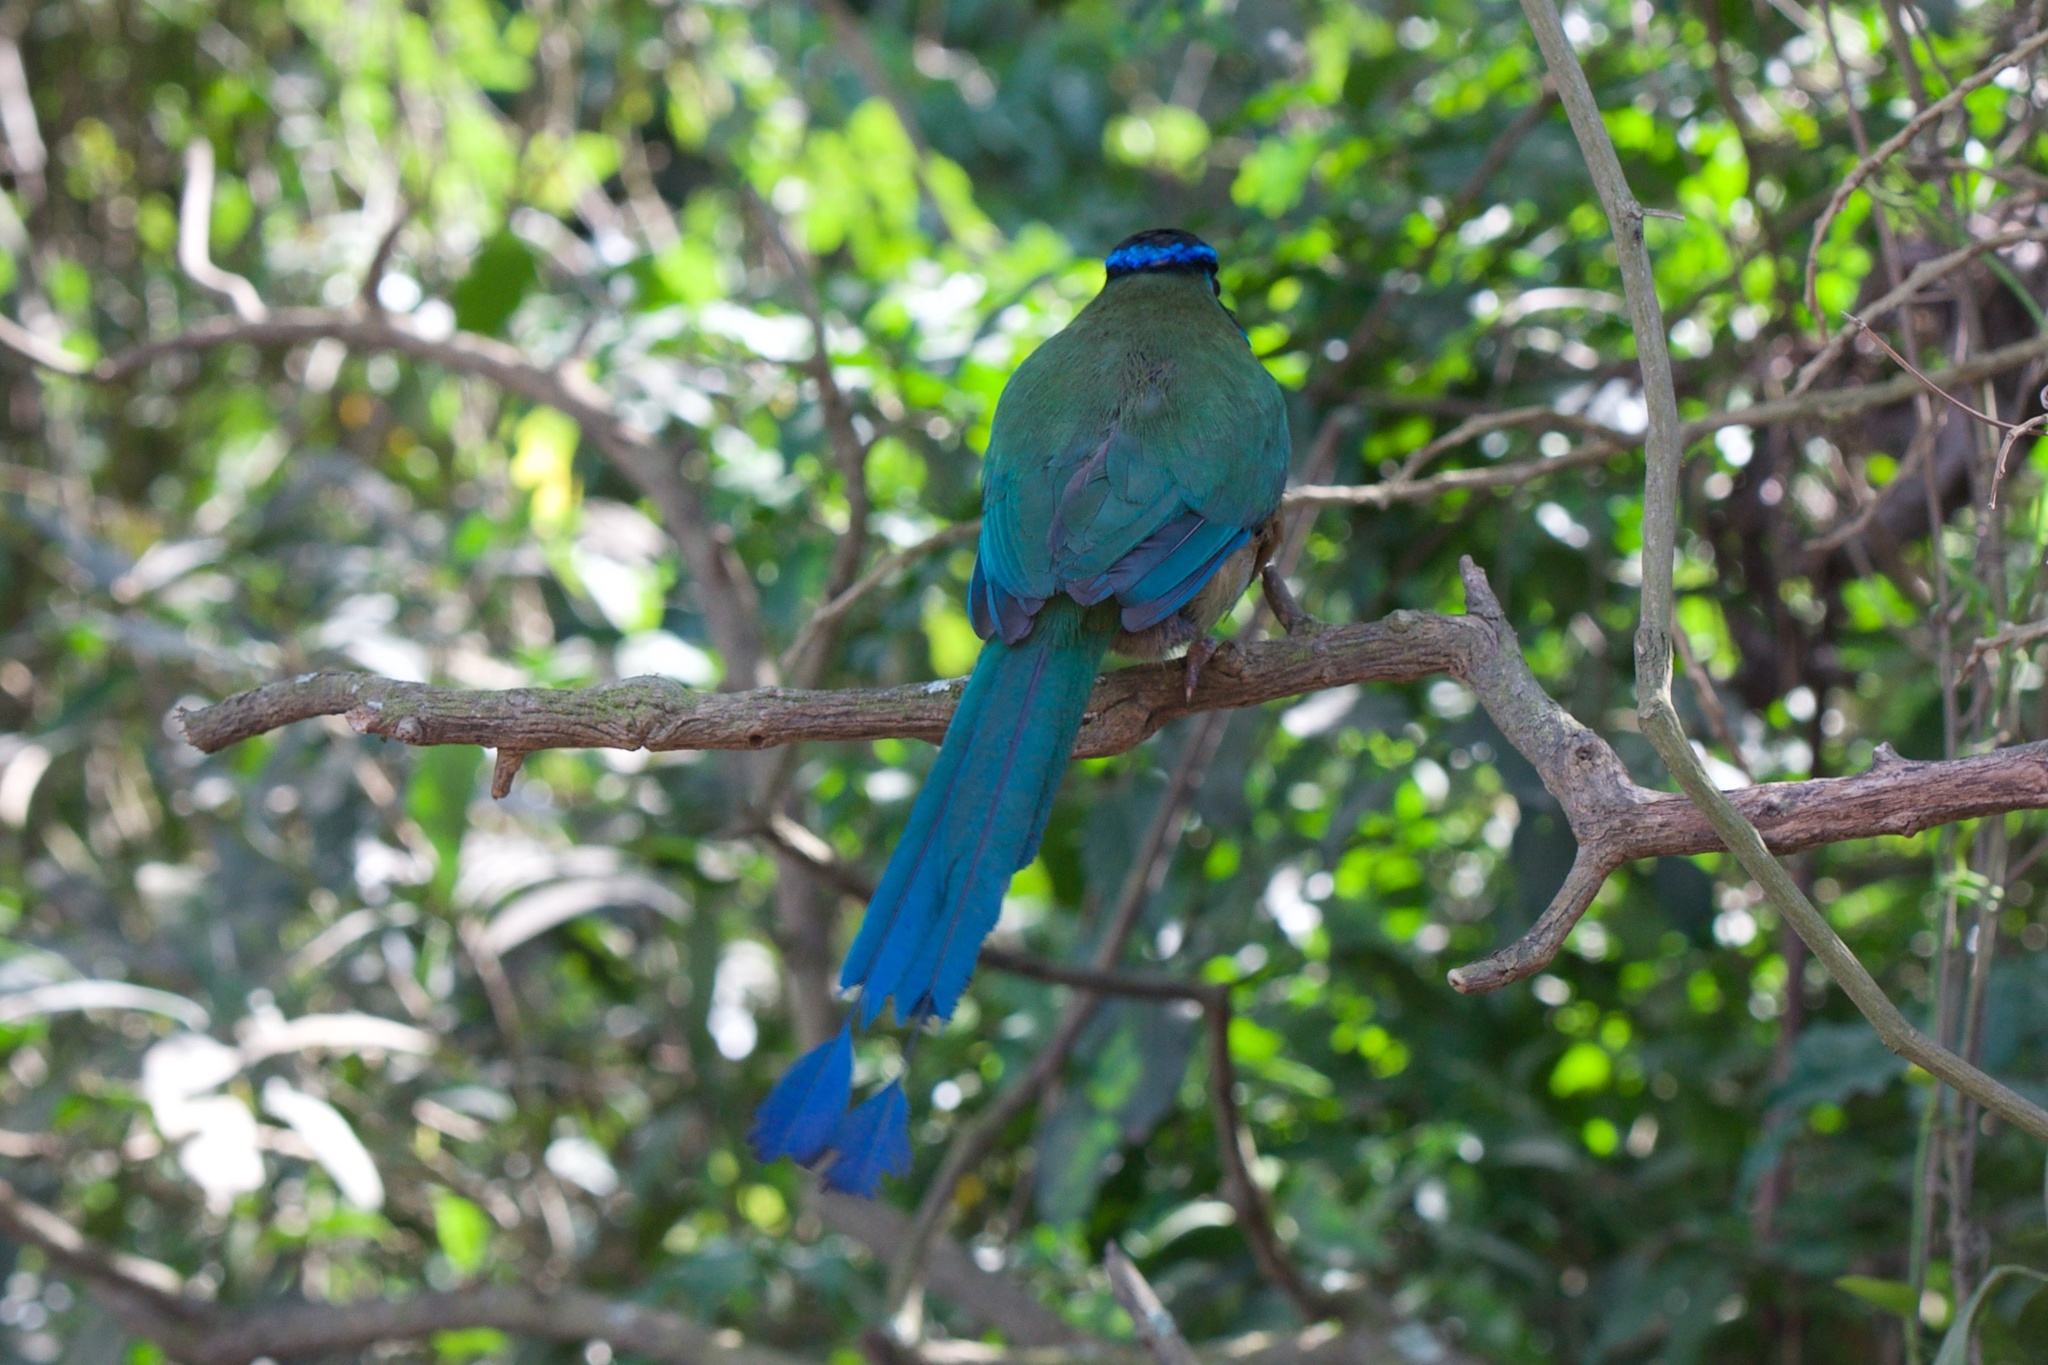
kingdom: Animalia
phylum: Chordata
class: Aves
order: Coraciiformes
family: Momotidae
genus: Momotus
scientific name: Momotus lessonii
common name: Lesson's motmot
